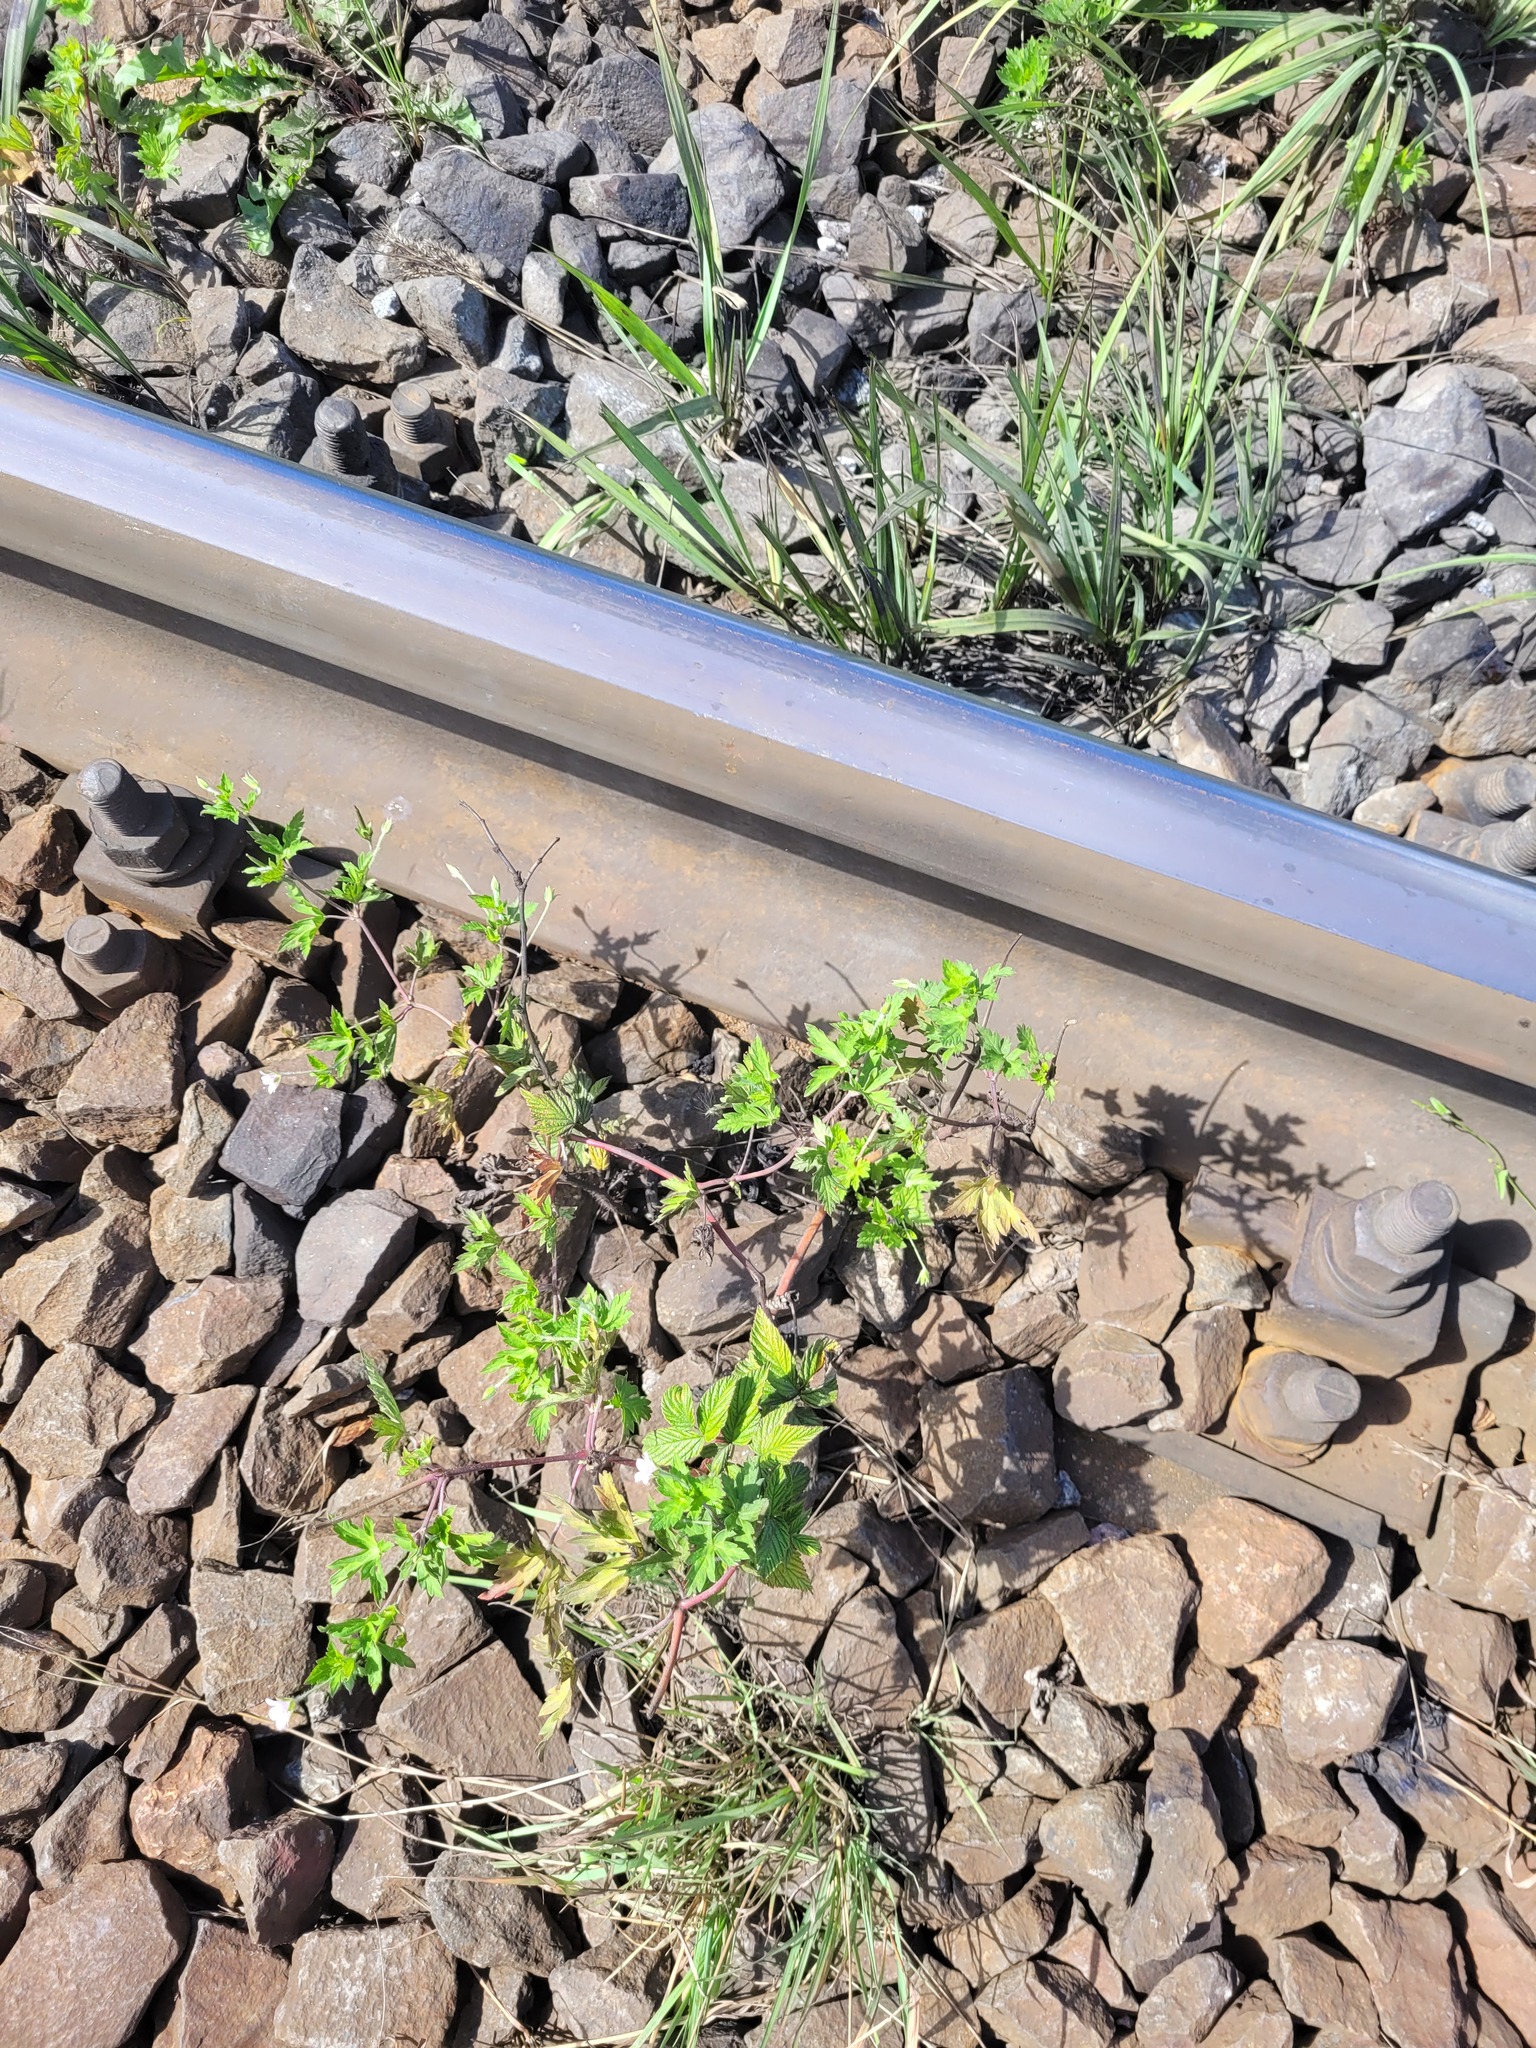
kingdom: Plantae
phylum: Tracheophyta
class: Magnoliopsida
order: Geraniales
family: Geraniaceae
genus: Geranium
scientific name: Geranium sibiricum
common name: Siberian crane's-bill
